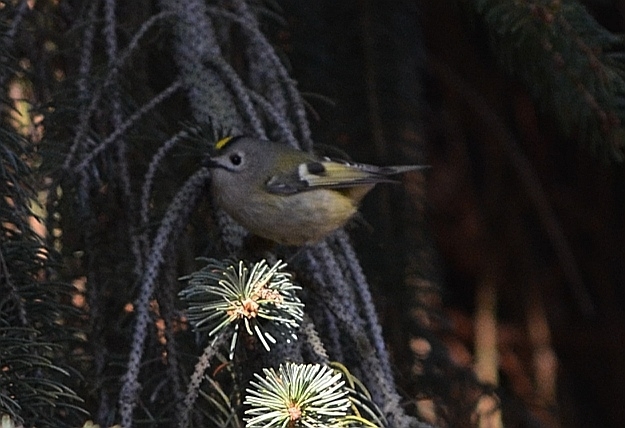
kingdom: Animalia
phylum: Chordata
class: Aves
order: Passeriformes
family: Regulidae
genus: Regulus
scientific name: Regulus regulus
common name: Goldcrest
